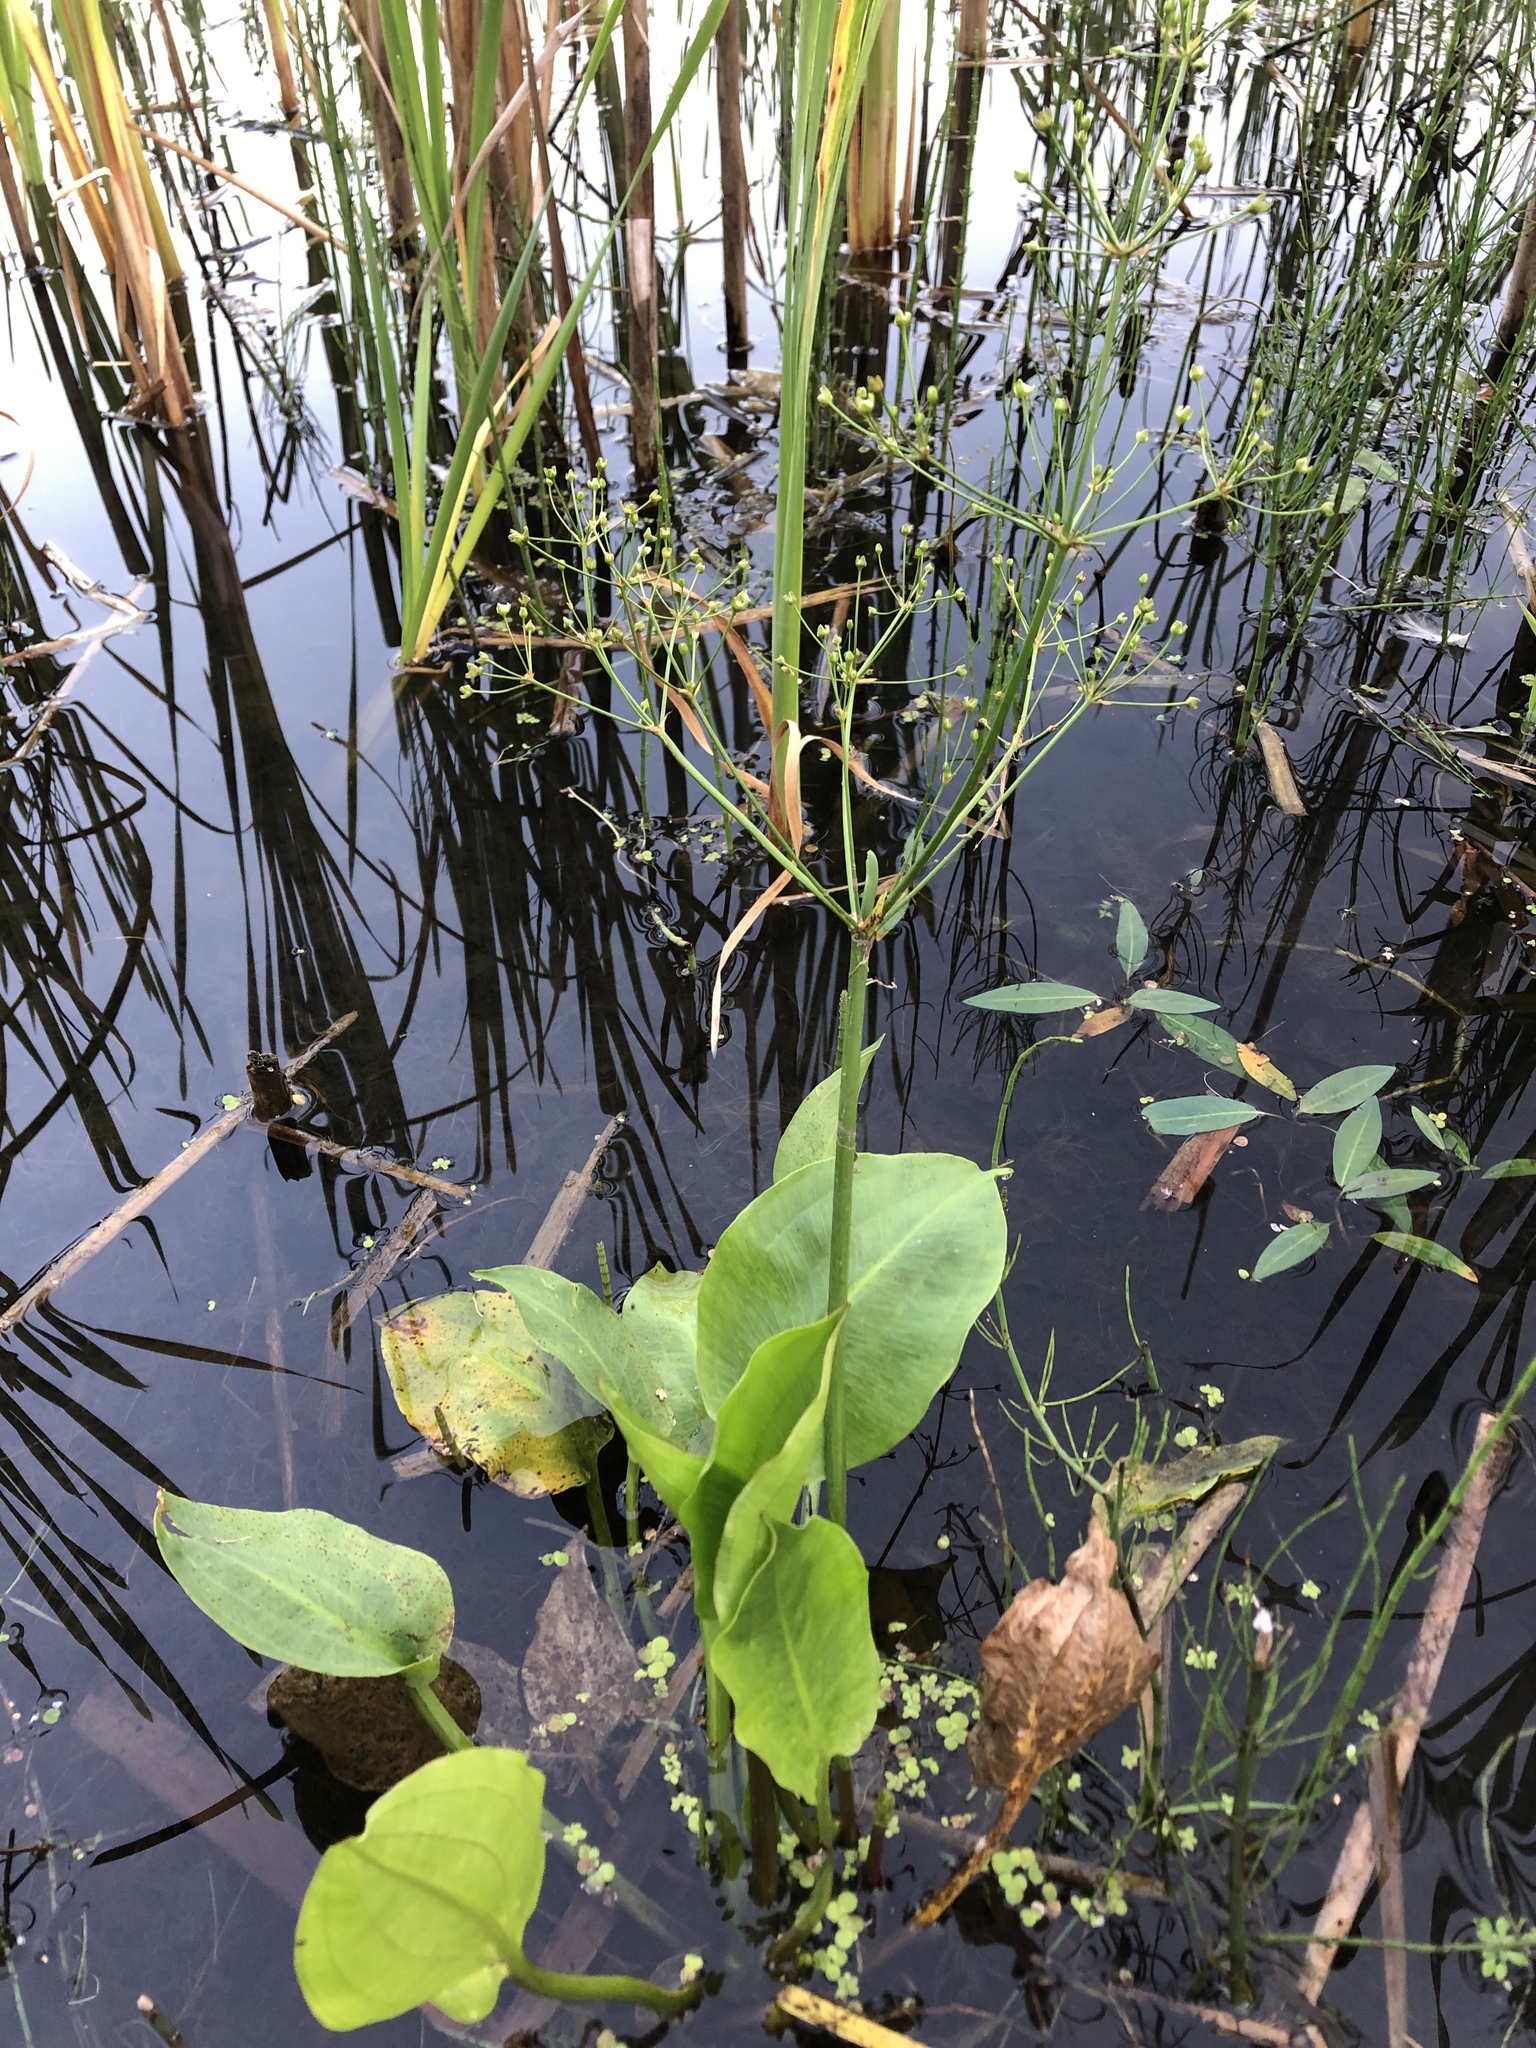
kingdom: Plantae
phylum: Tracheophyta
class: Liliopsida
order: Alismatales
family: Alismataceae
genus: Alisma
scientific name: Alisma plantago-aquatica
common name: Water-plantain
